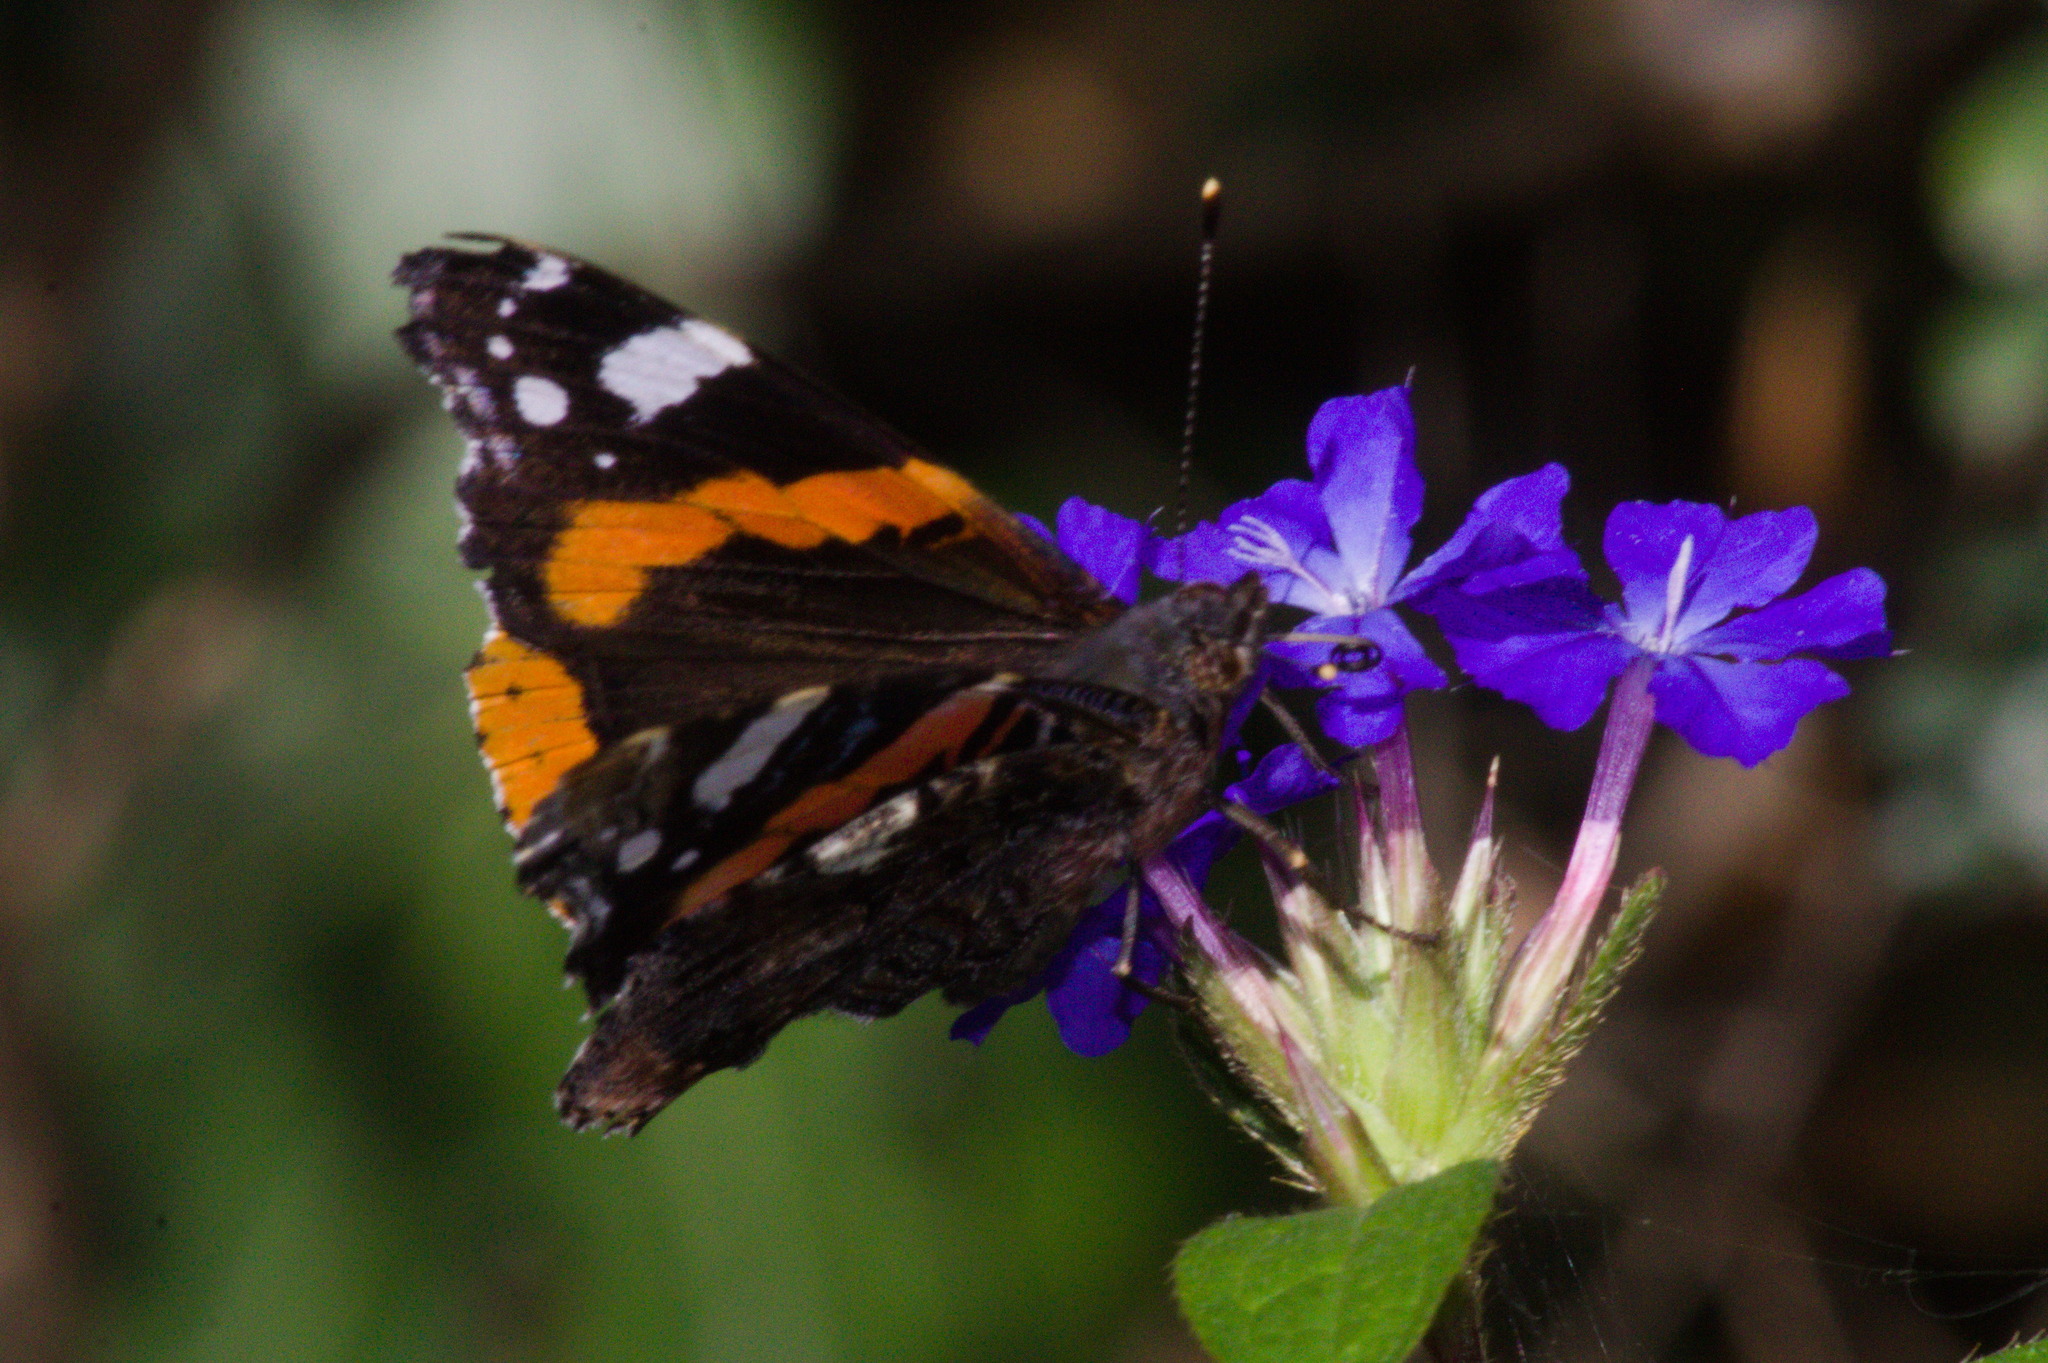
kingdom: Animalia
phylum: Arthropoda
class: Insecta
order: Lepidoptera
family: Nymphalidae
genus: Vanessa
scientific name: Vanessa atalanta
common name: Red admiral
